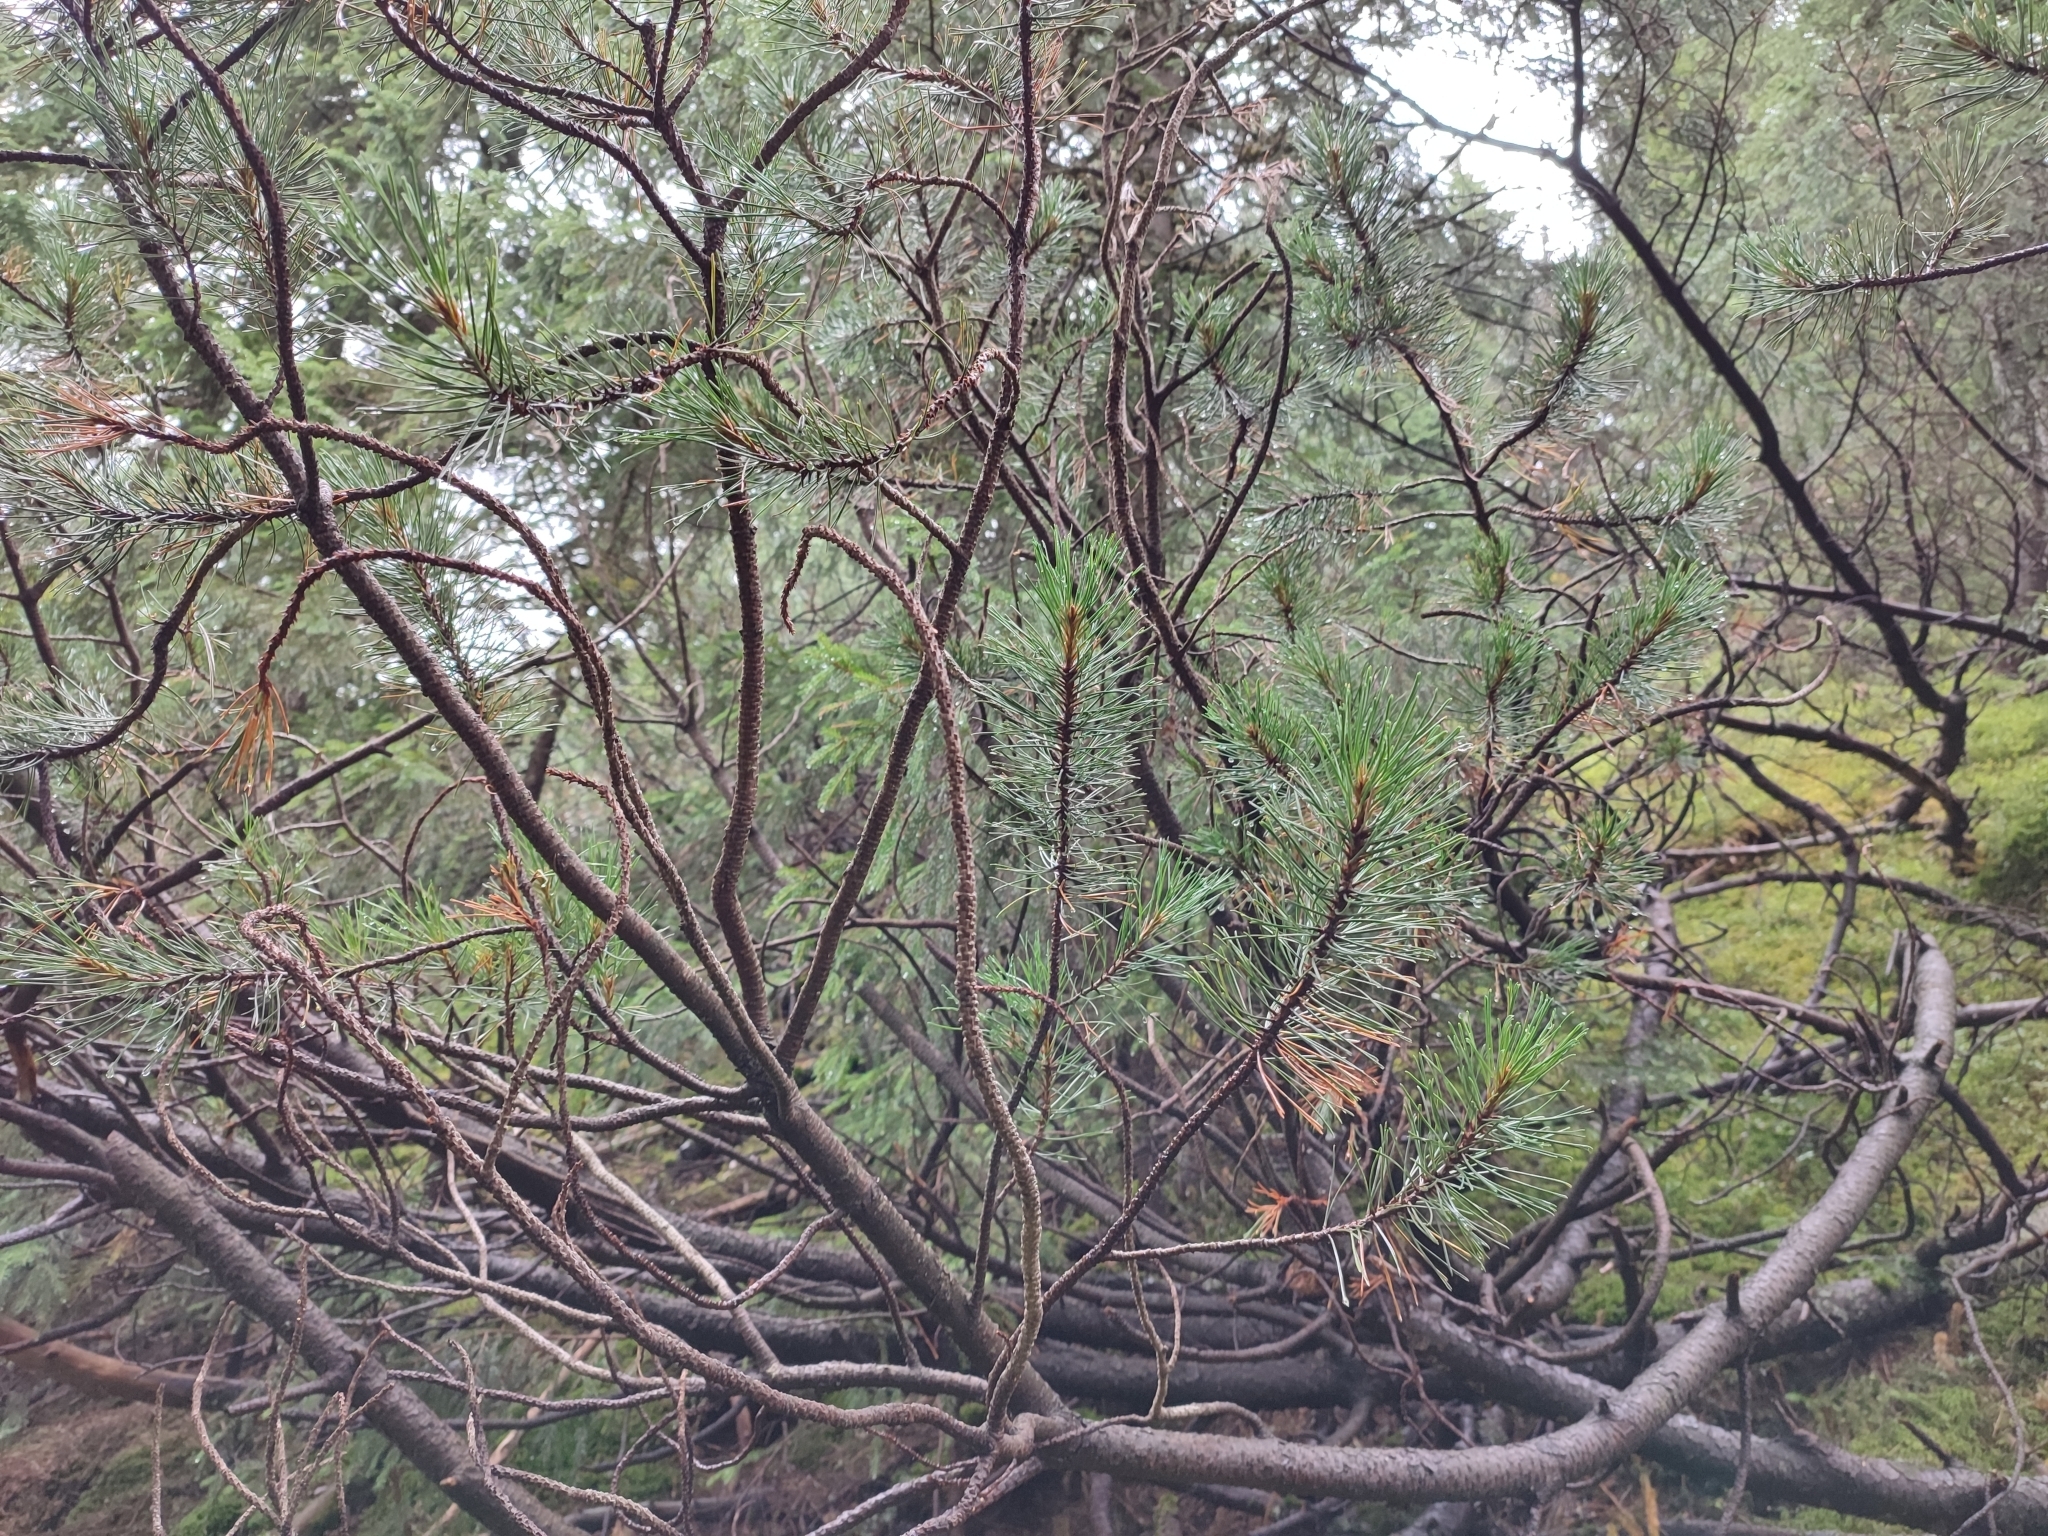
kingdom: Plantae
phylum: Tracheophyta
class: Pinopsida
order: Pinales
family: Pinaceae
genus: Pinus
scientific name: Pinus mugo
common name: Mugo pine
